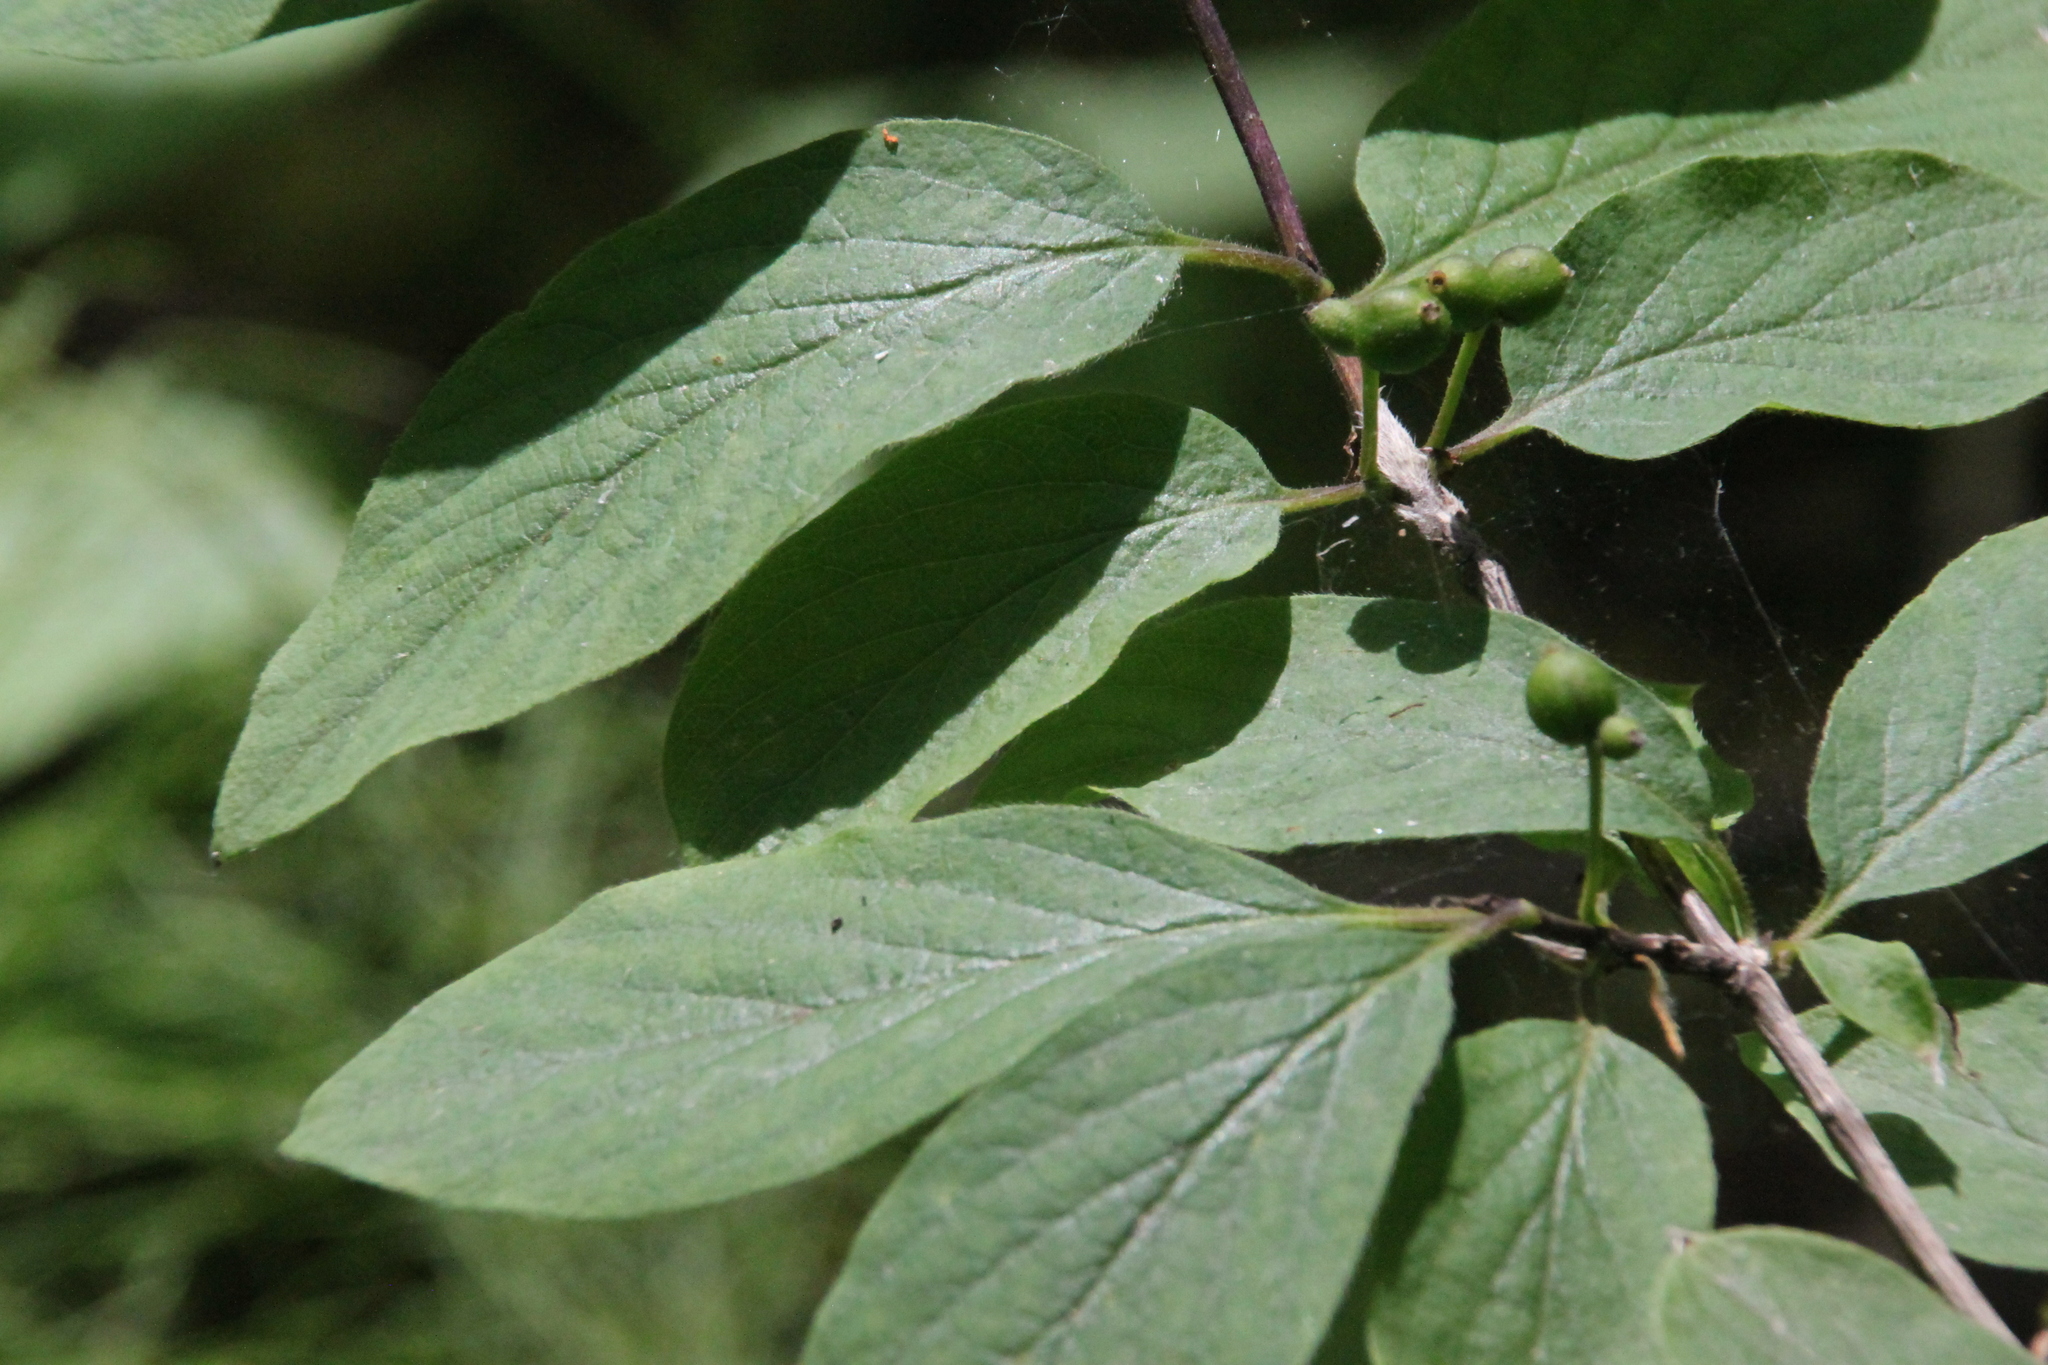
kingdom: Plantae
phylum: Tracheophyta
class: Magnoliopsida
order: Dipsacales
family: Caprifoliaceae
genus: Lonicera
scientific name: Lonicera xylosteum
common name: Fly honeysuckle
